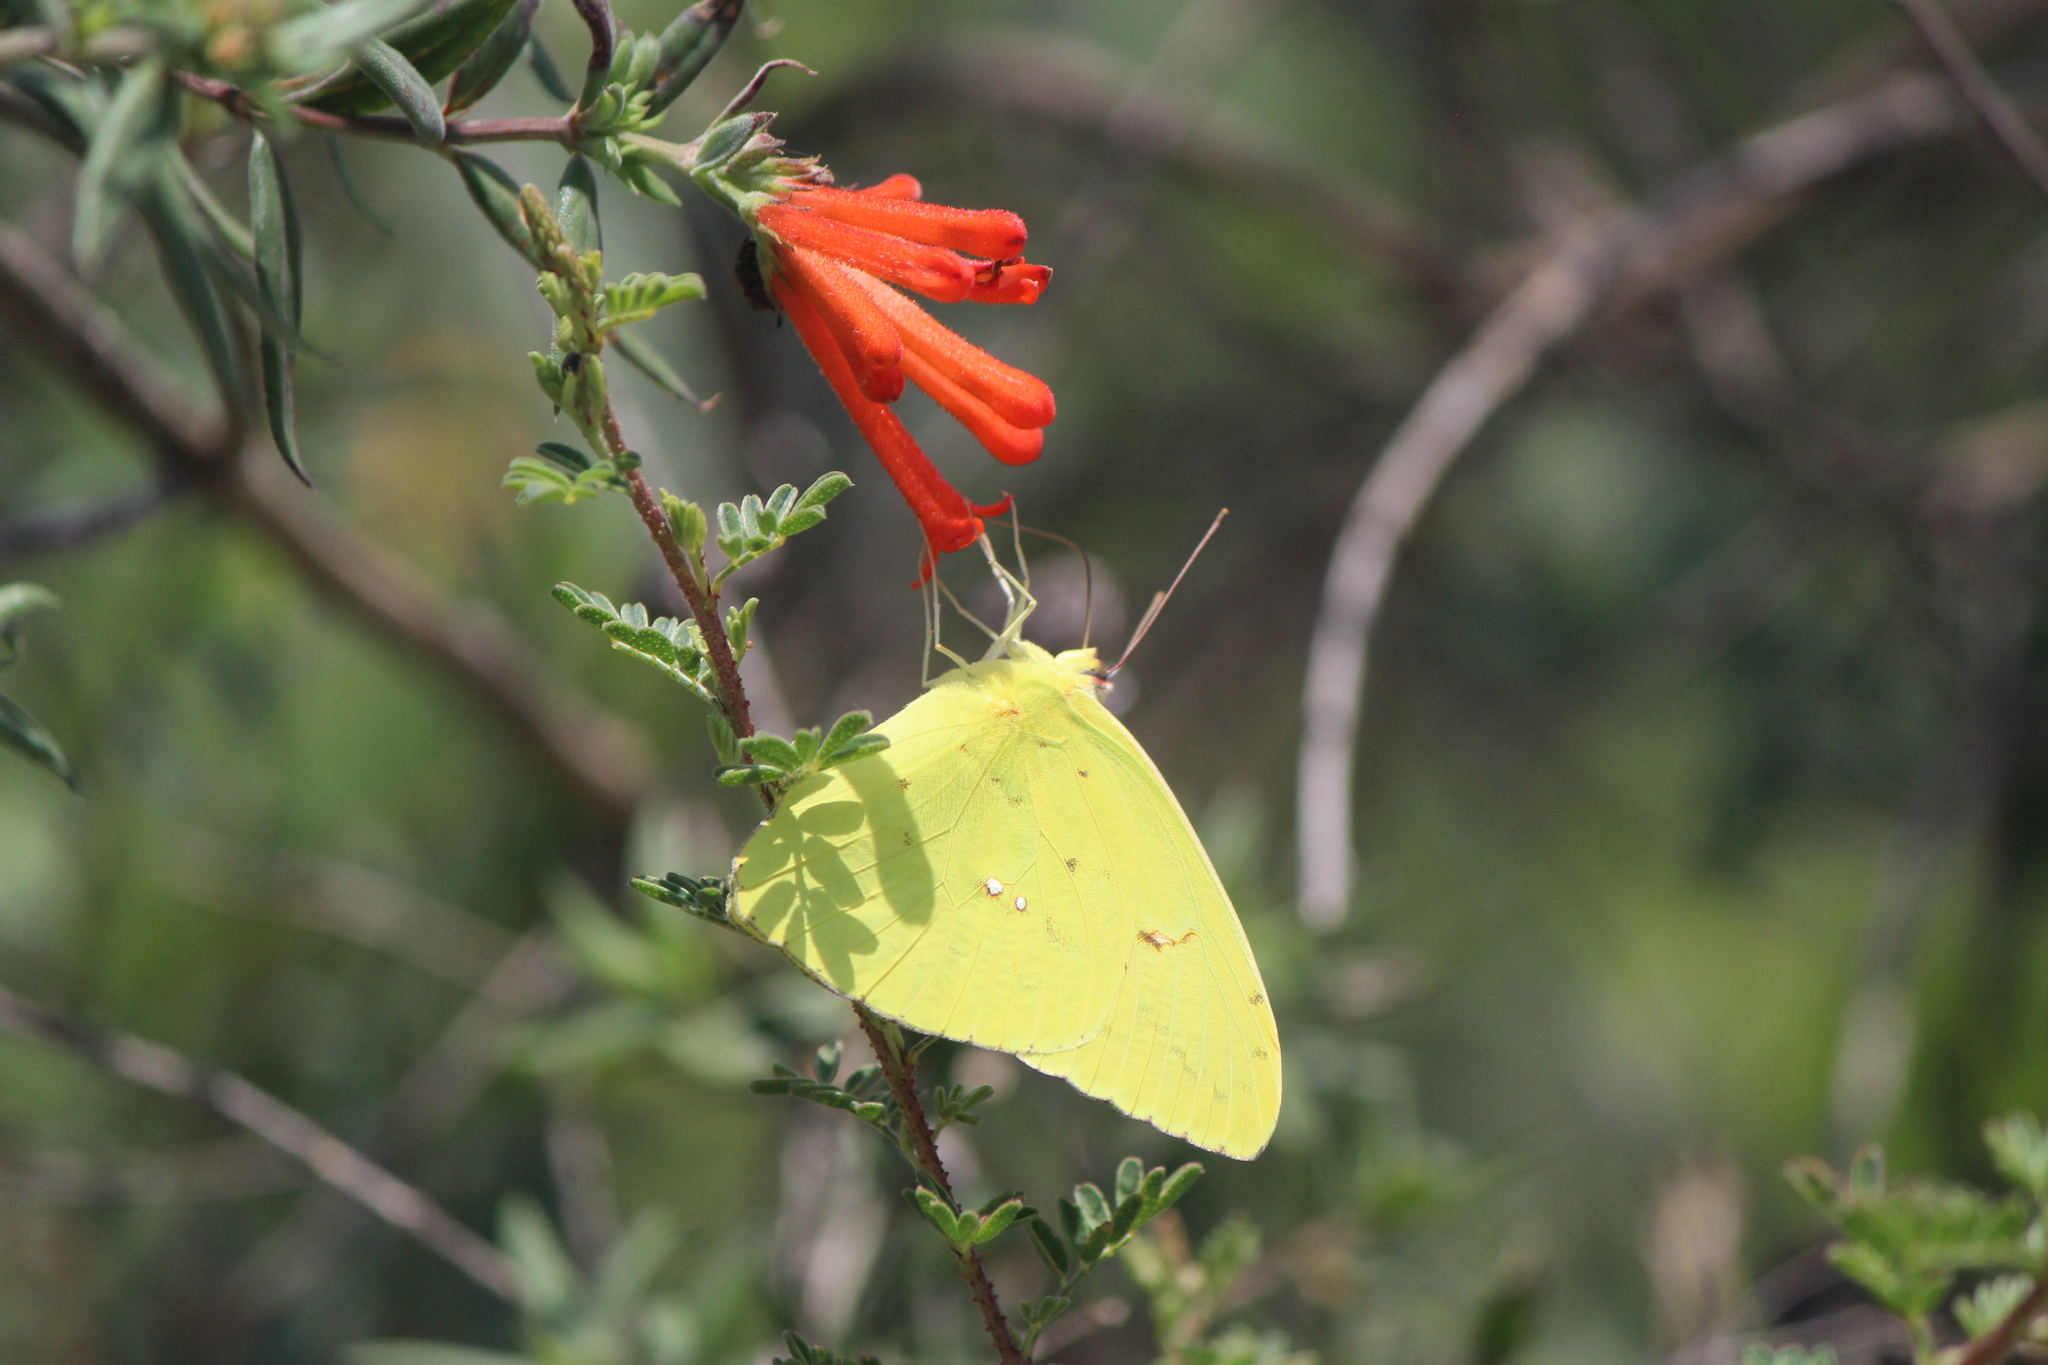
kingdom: Animalia
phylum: Arthropoda
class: Insecta
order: Lepidoptera
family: Pieridae
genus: Phoebis
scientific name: Phoebis marcellina
